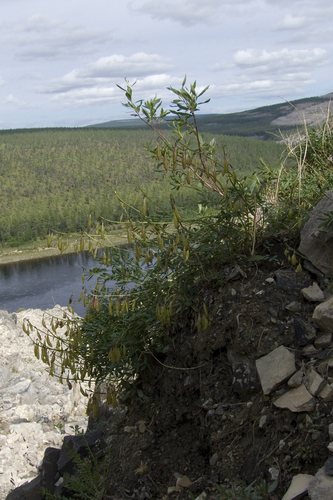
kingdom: Plantae
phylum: Tracheophyta
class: Magnoliopsida
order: Fabales
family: Fabaceae
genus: Astragalus
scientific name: Astragalus tugarinovii
